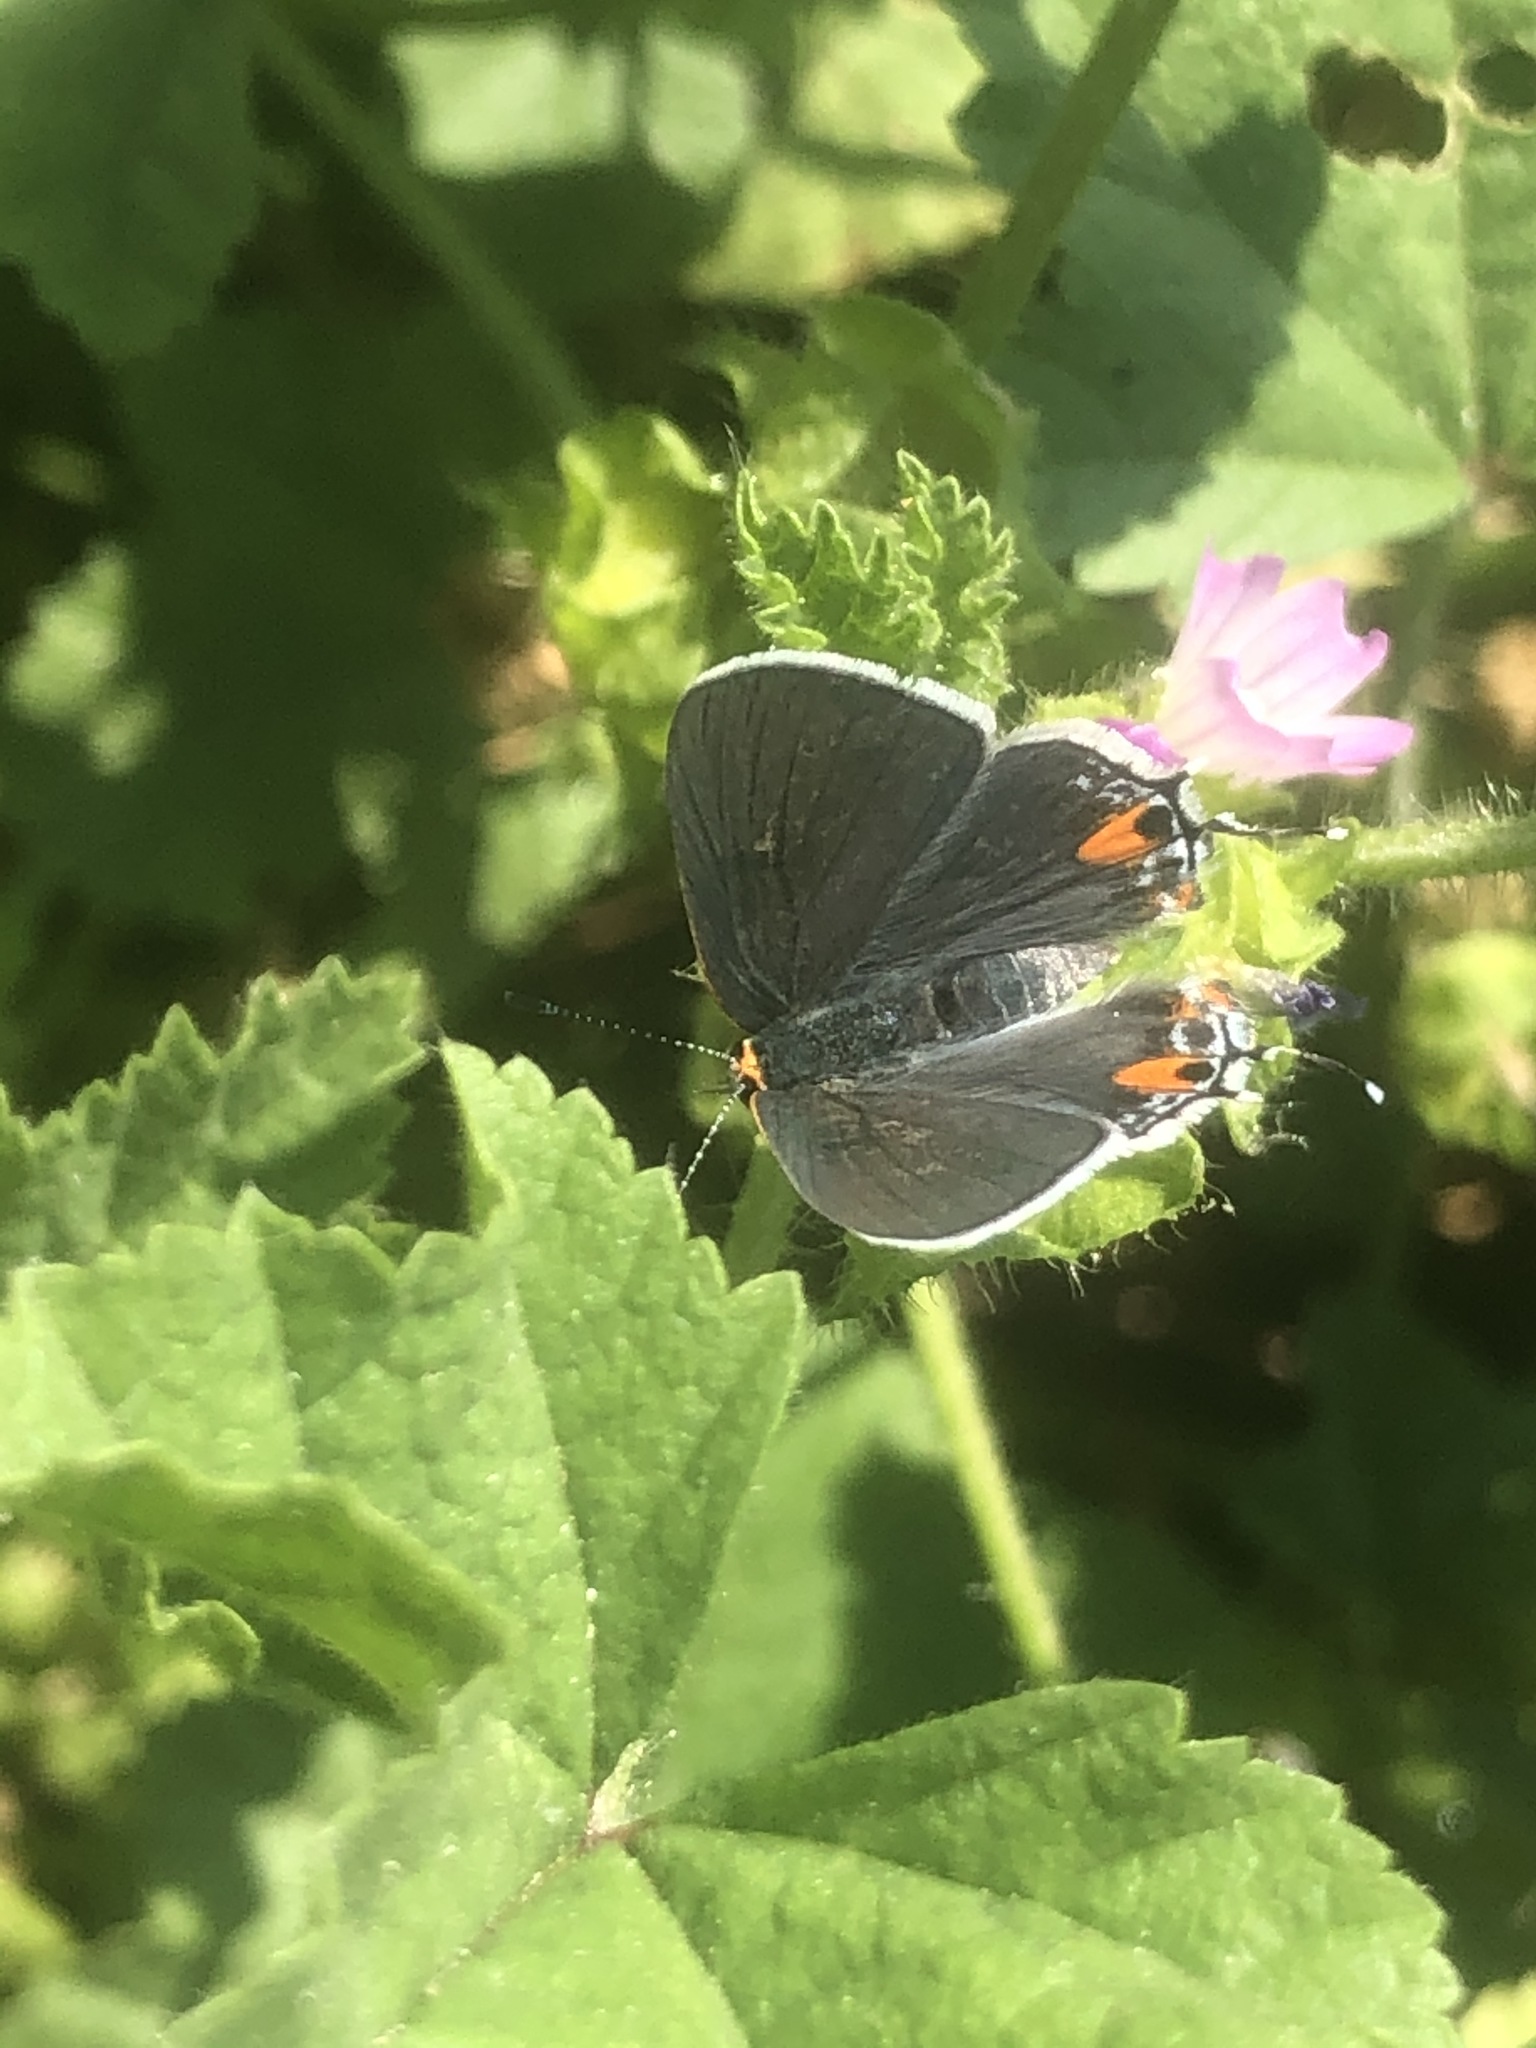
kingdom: Animalia
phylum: Arthropoda
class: Insecta
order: Lepidoptera
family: Lycaenidae
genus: Strymon
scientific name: Strymon melinus
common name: Gray hairstreak
